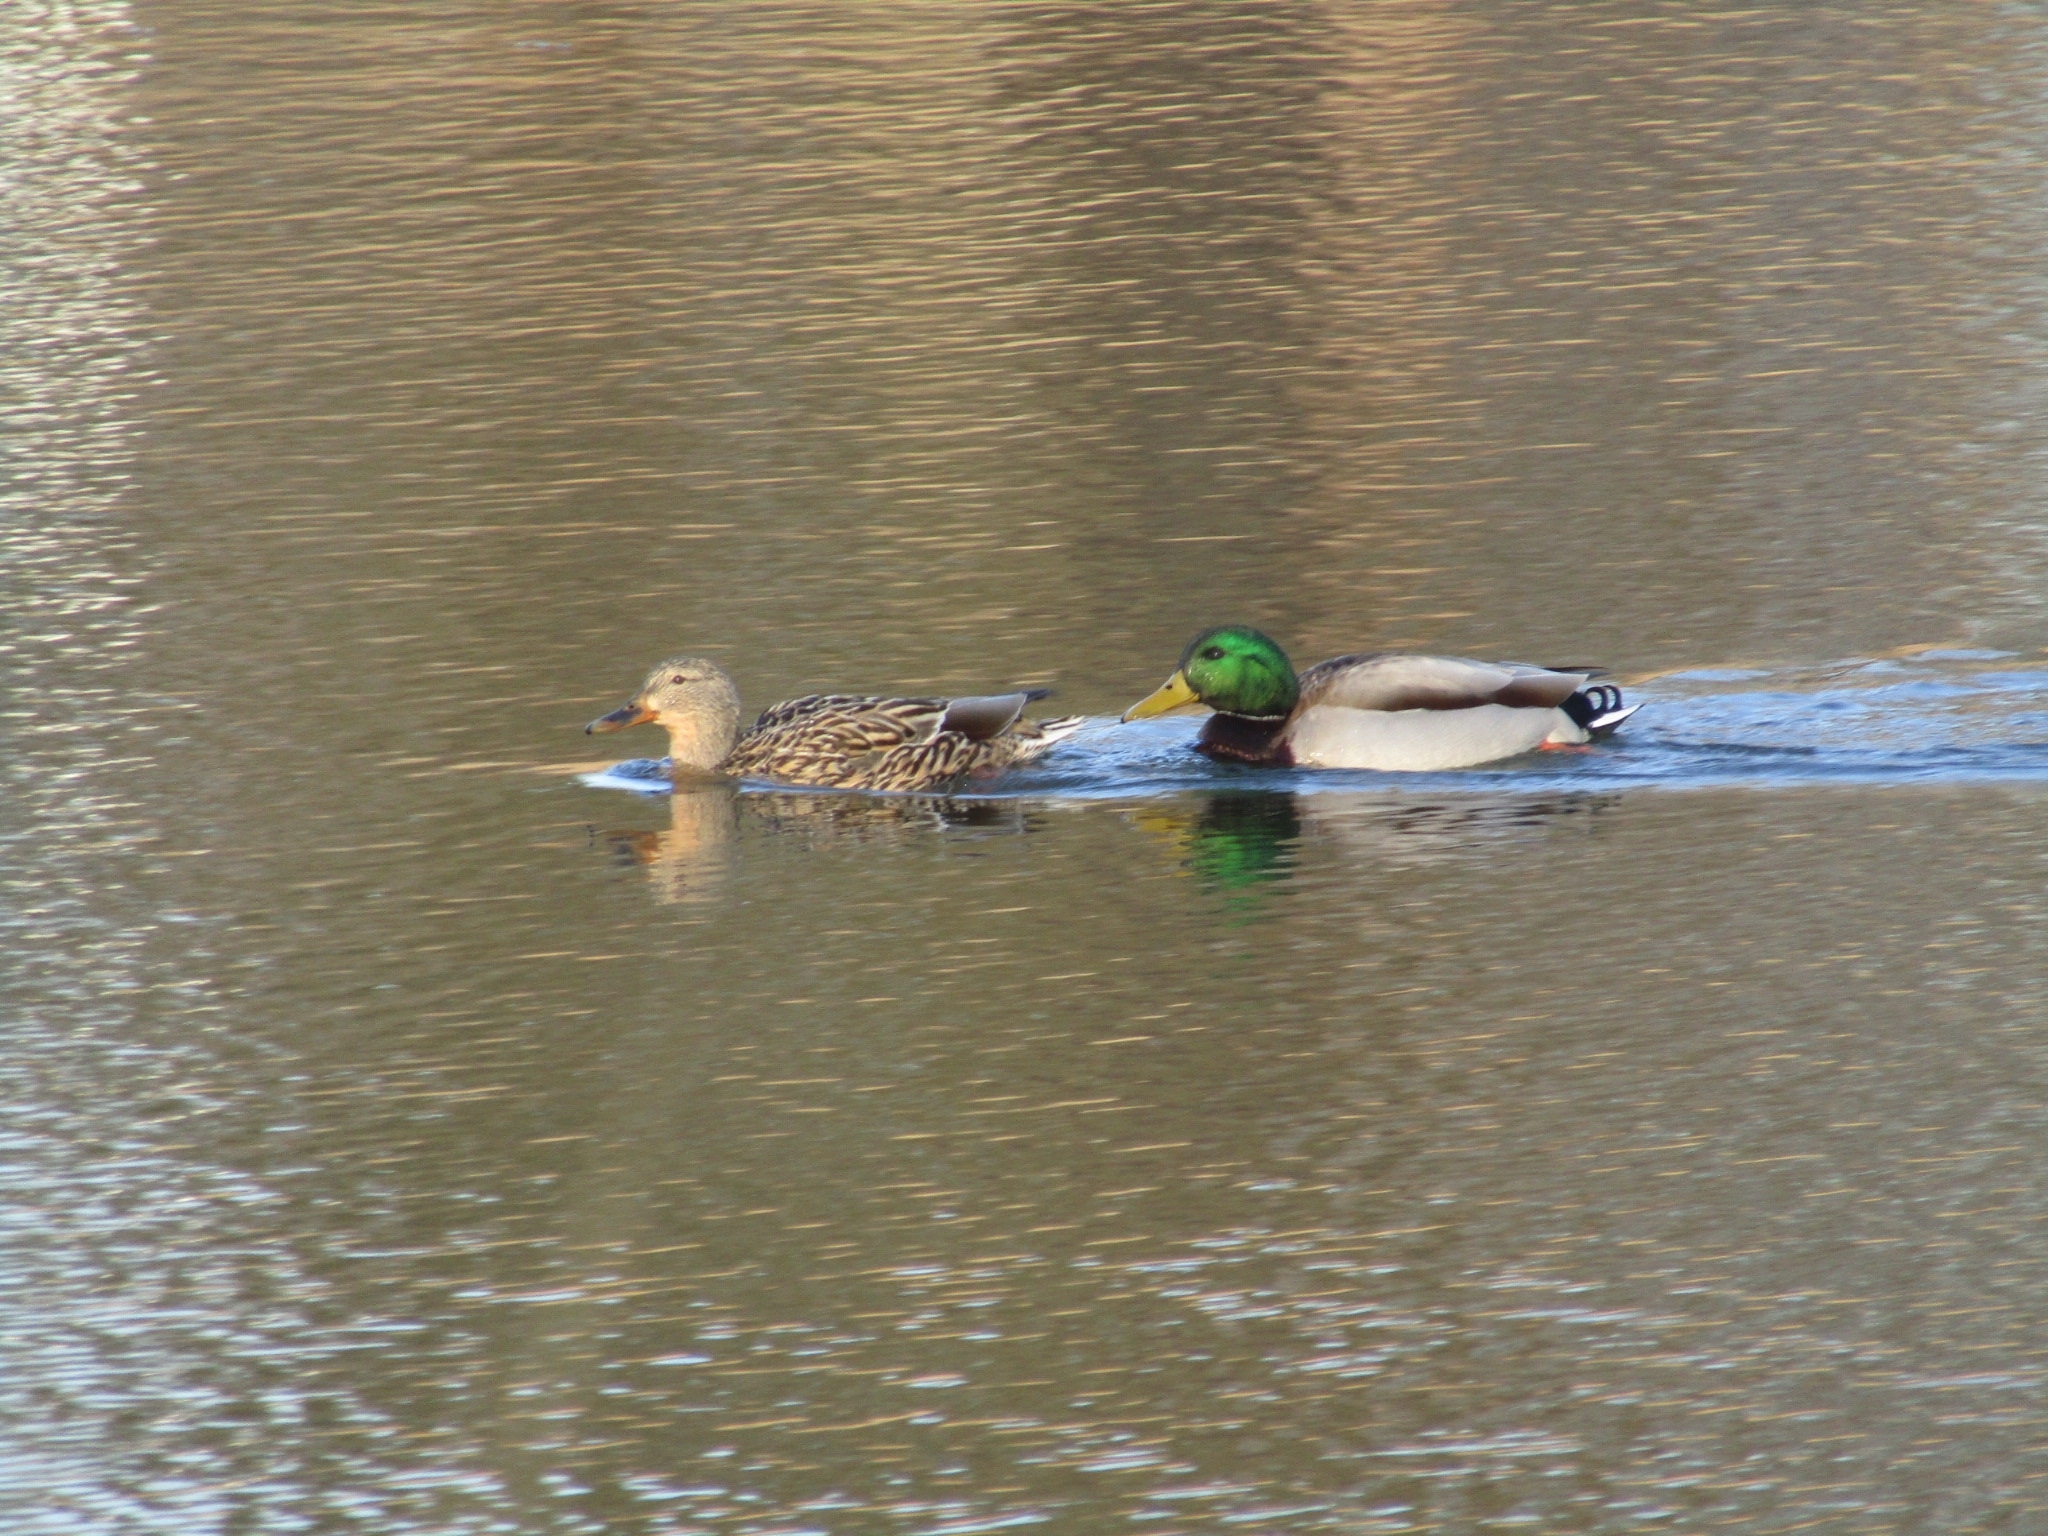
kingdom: Animalia
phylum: Chordata
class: Aves
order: Anseriformes
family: Anatidae
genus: Anas
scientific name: Anas platyrhynchos
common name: Mallard
